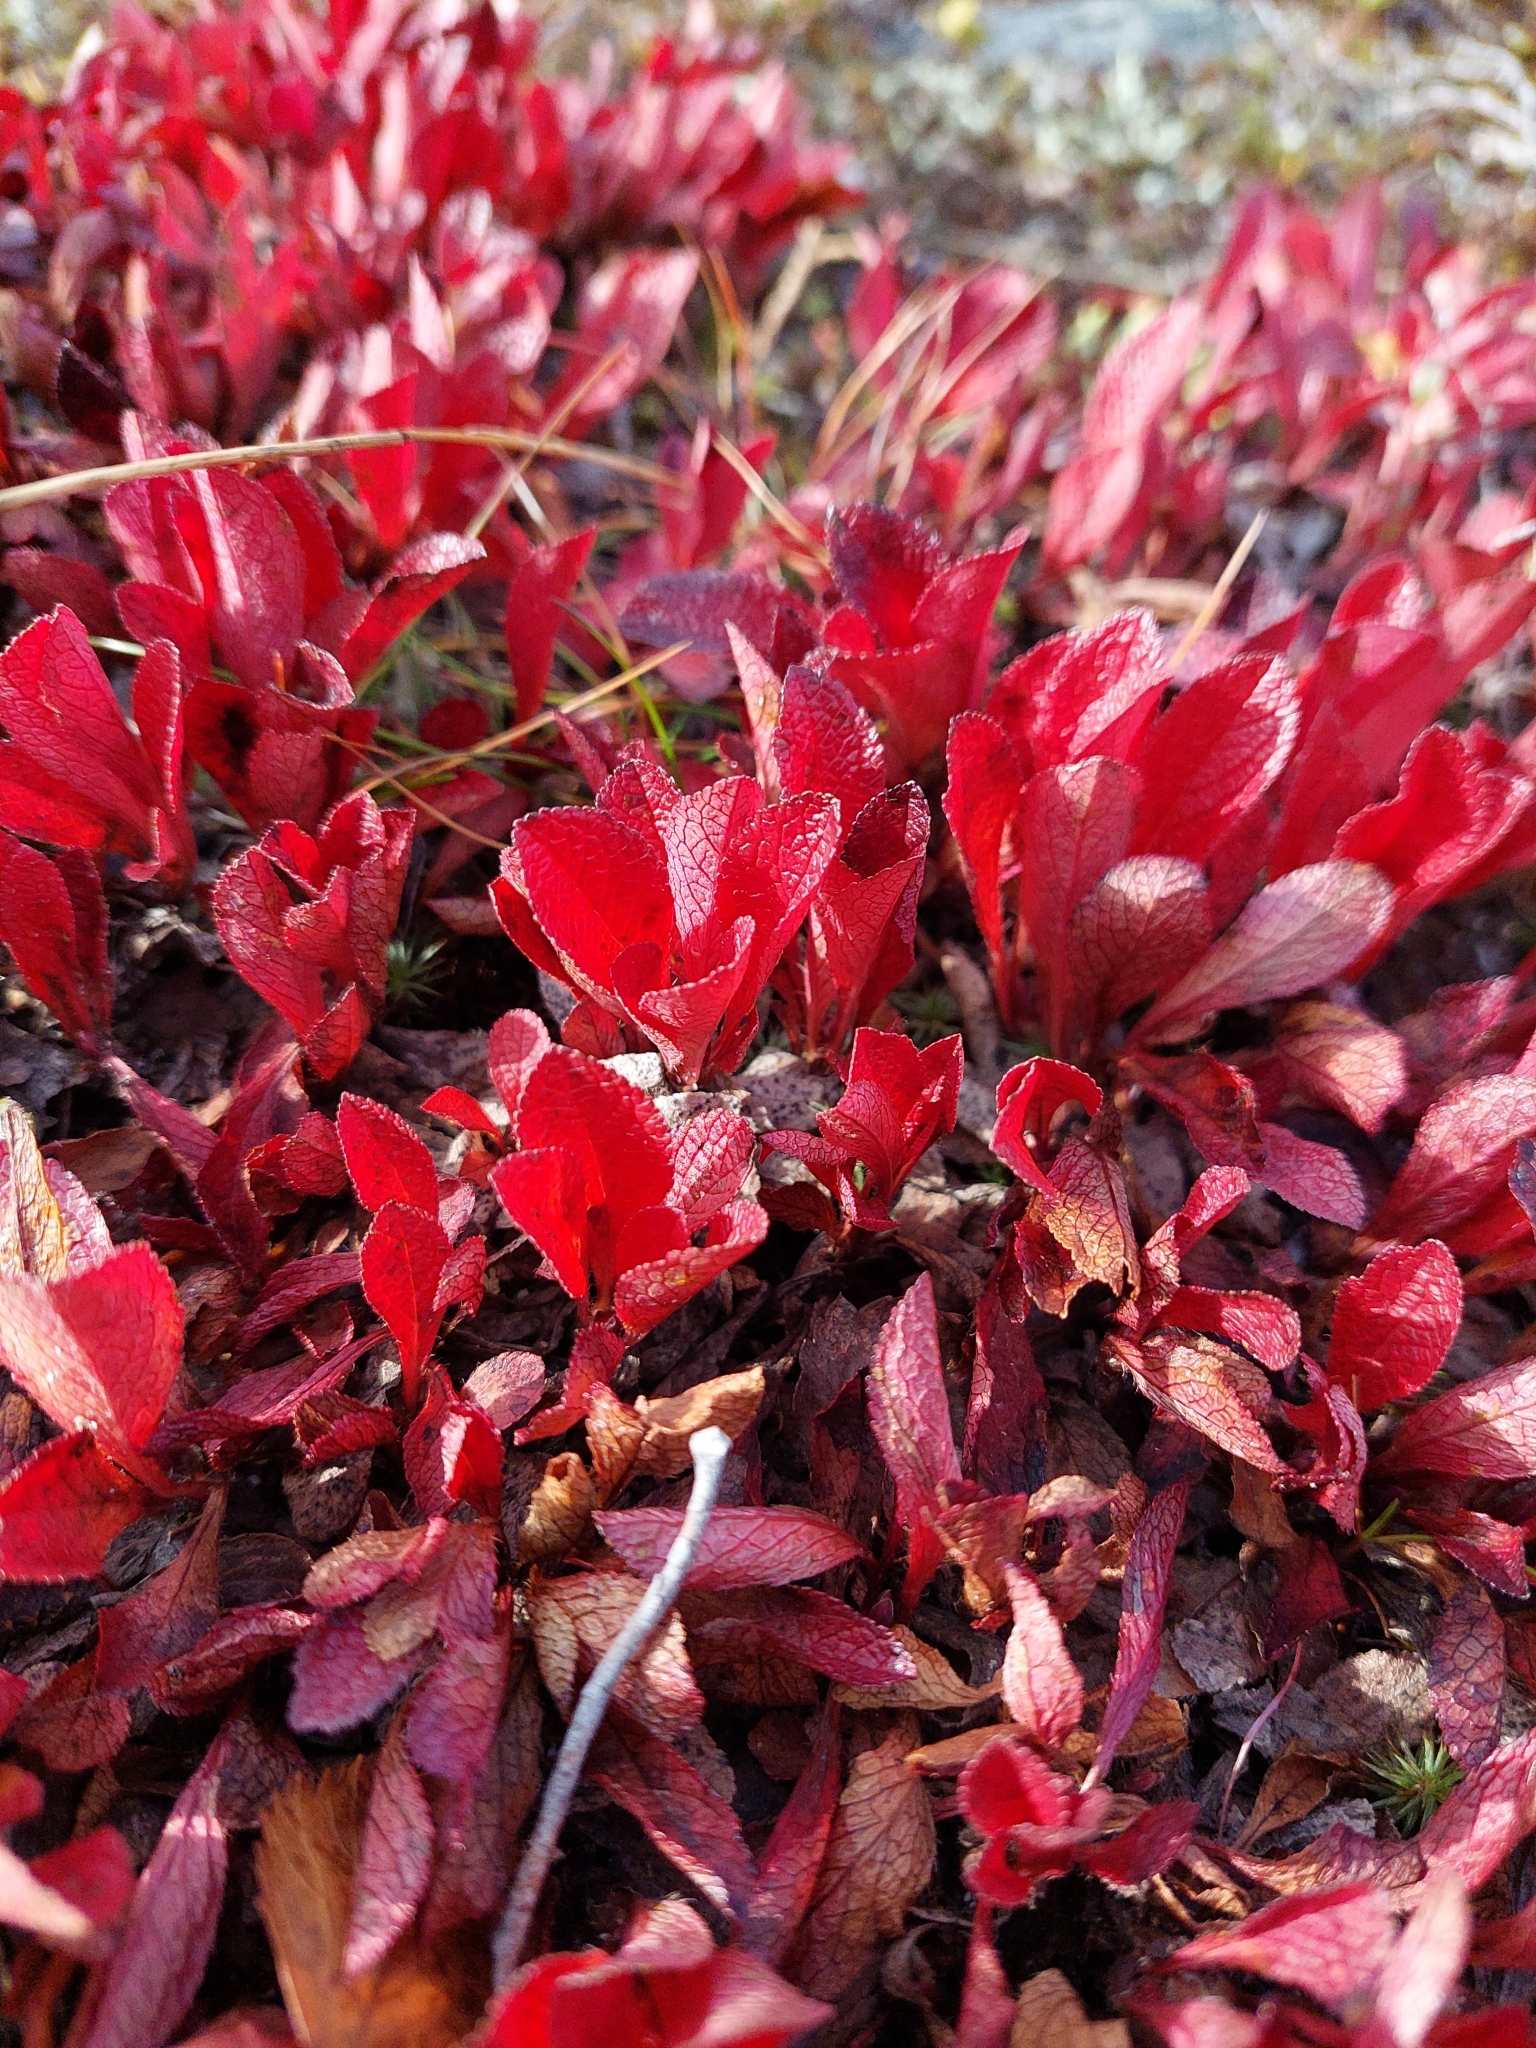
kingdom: Plantae
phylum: Tracheophyta
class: Magnoliopsida
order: Ericales
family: Ericaceae
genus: Arctostaphylos
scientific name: Arctostaphylos alpinus
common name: Alpine bearberry
